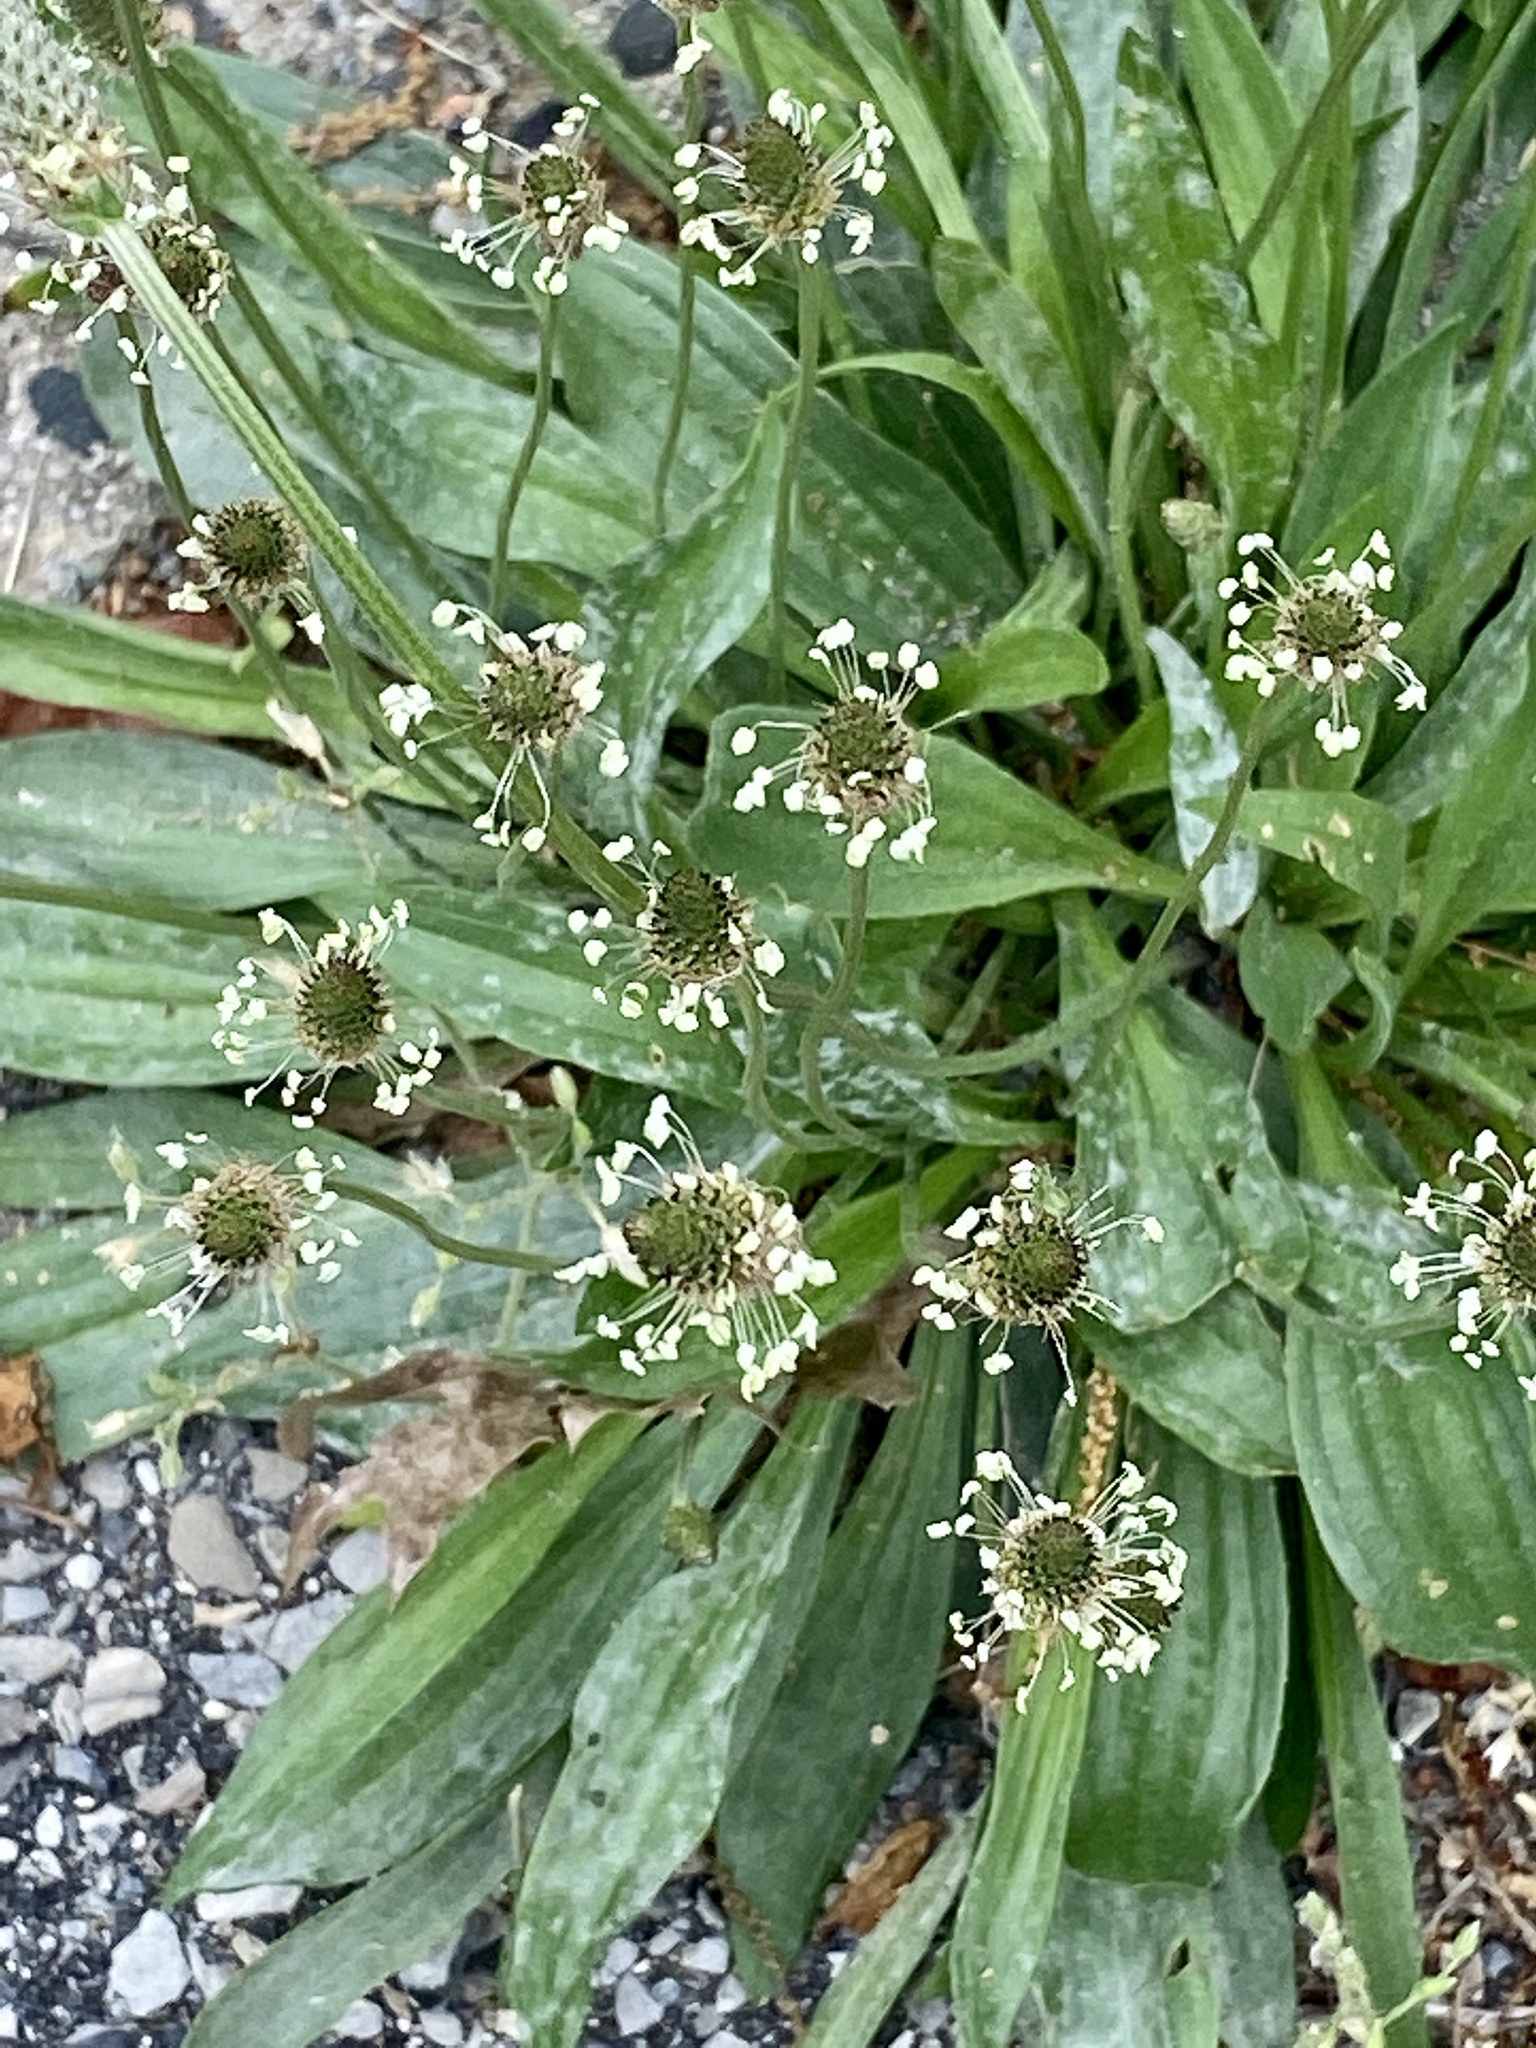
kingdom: Plantae
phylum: Tracheophyta
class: Magnoliopsida
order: Lamiales
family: Plantaginaceae
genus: Plantago
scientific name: Plantago lanceolata
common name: Ribwort plantain
